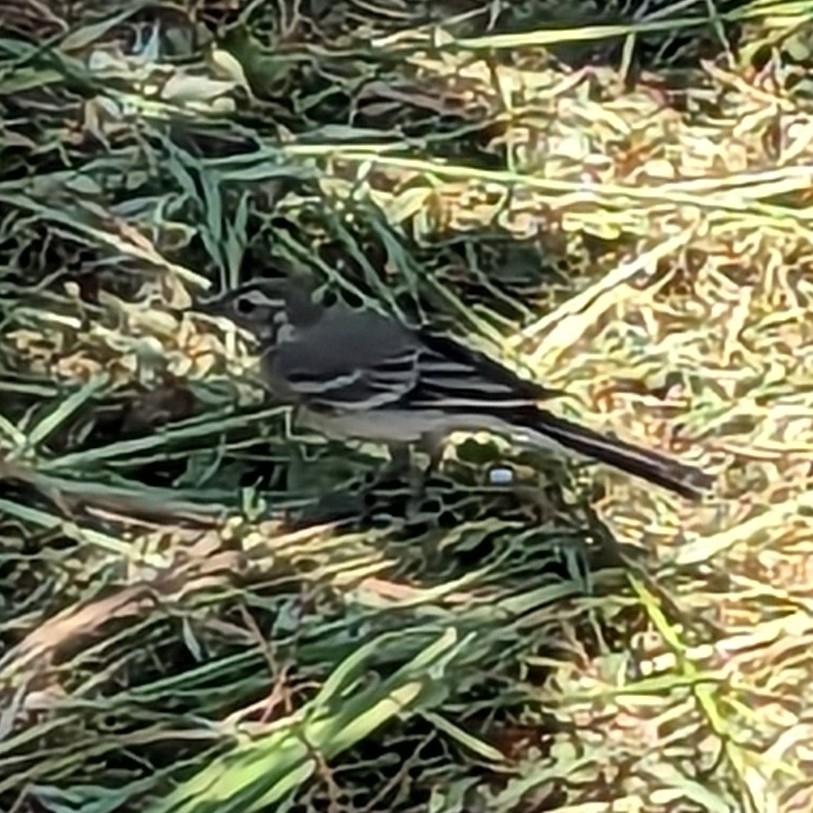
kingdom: Animalia
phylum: Chordata
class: Aves
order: Passeriformes
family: Motacillidae
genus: Motacilla
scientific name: Motacilla alba
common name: White wagtail
